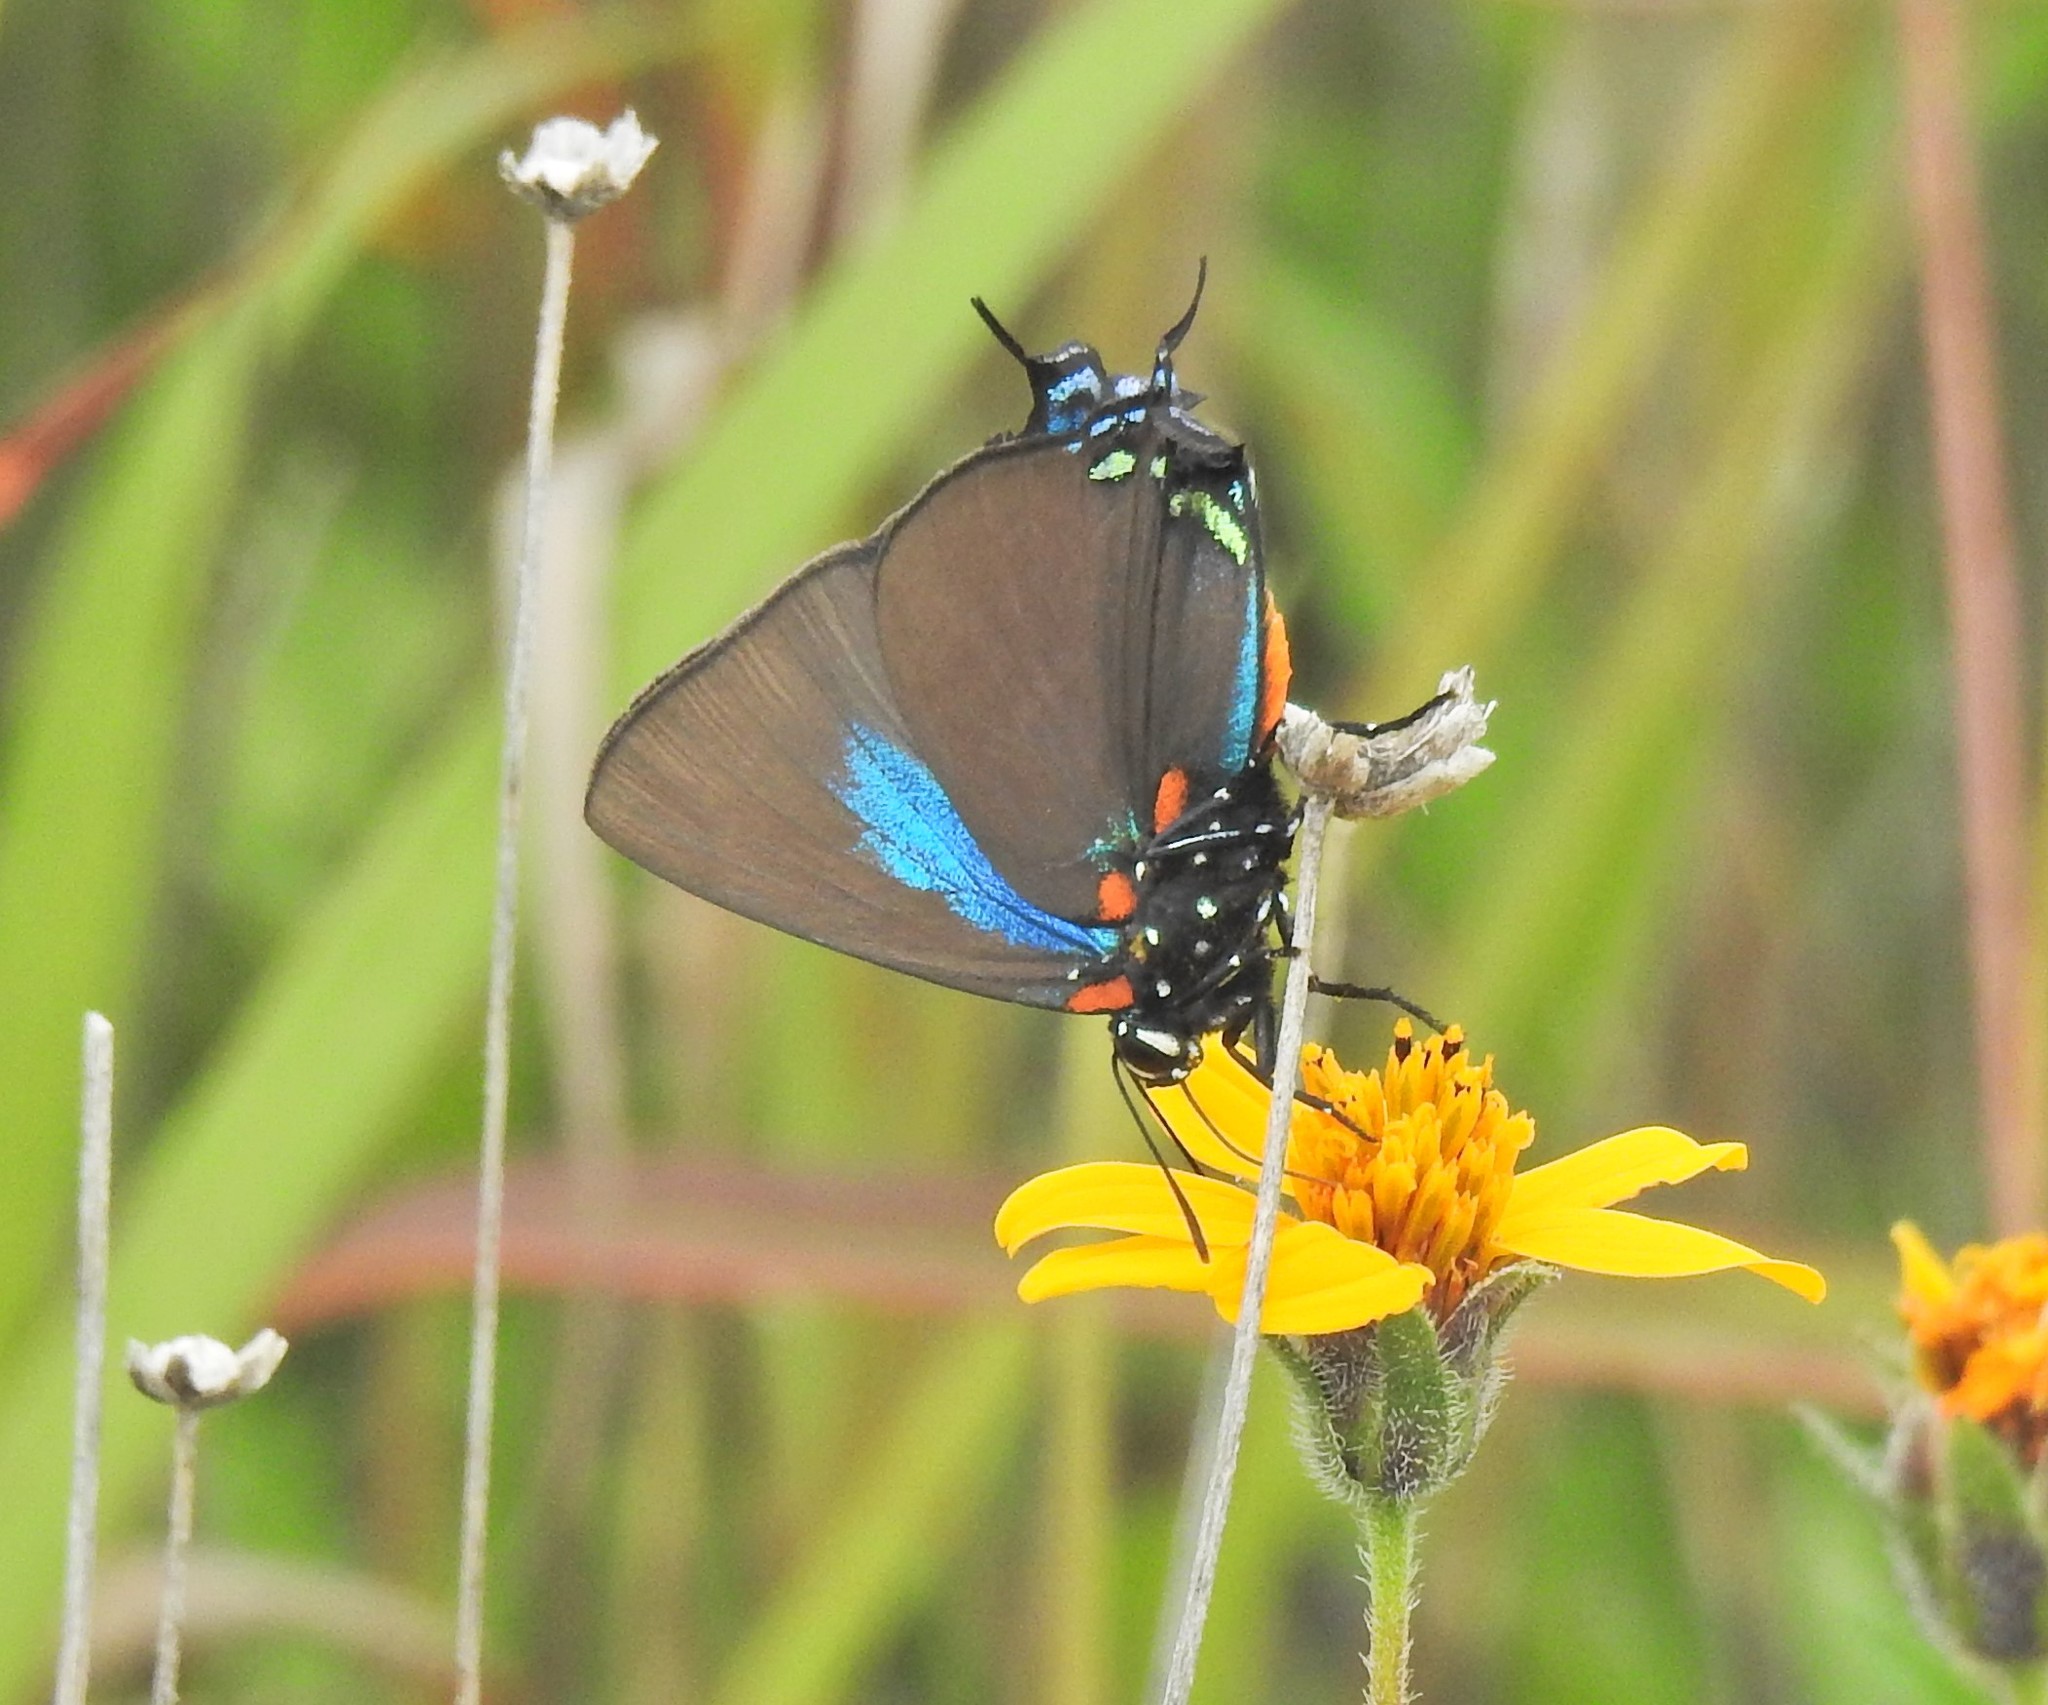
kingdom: Animalia
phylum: Arthropoda
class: Insecta
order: Lepidoptera
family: Lycaenidae
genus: Atlides
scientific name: Atlides halesus
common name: Great purple hairstreak
